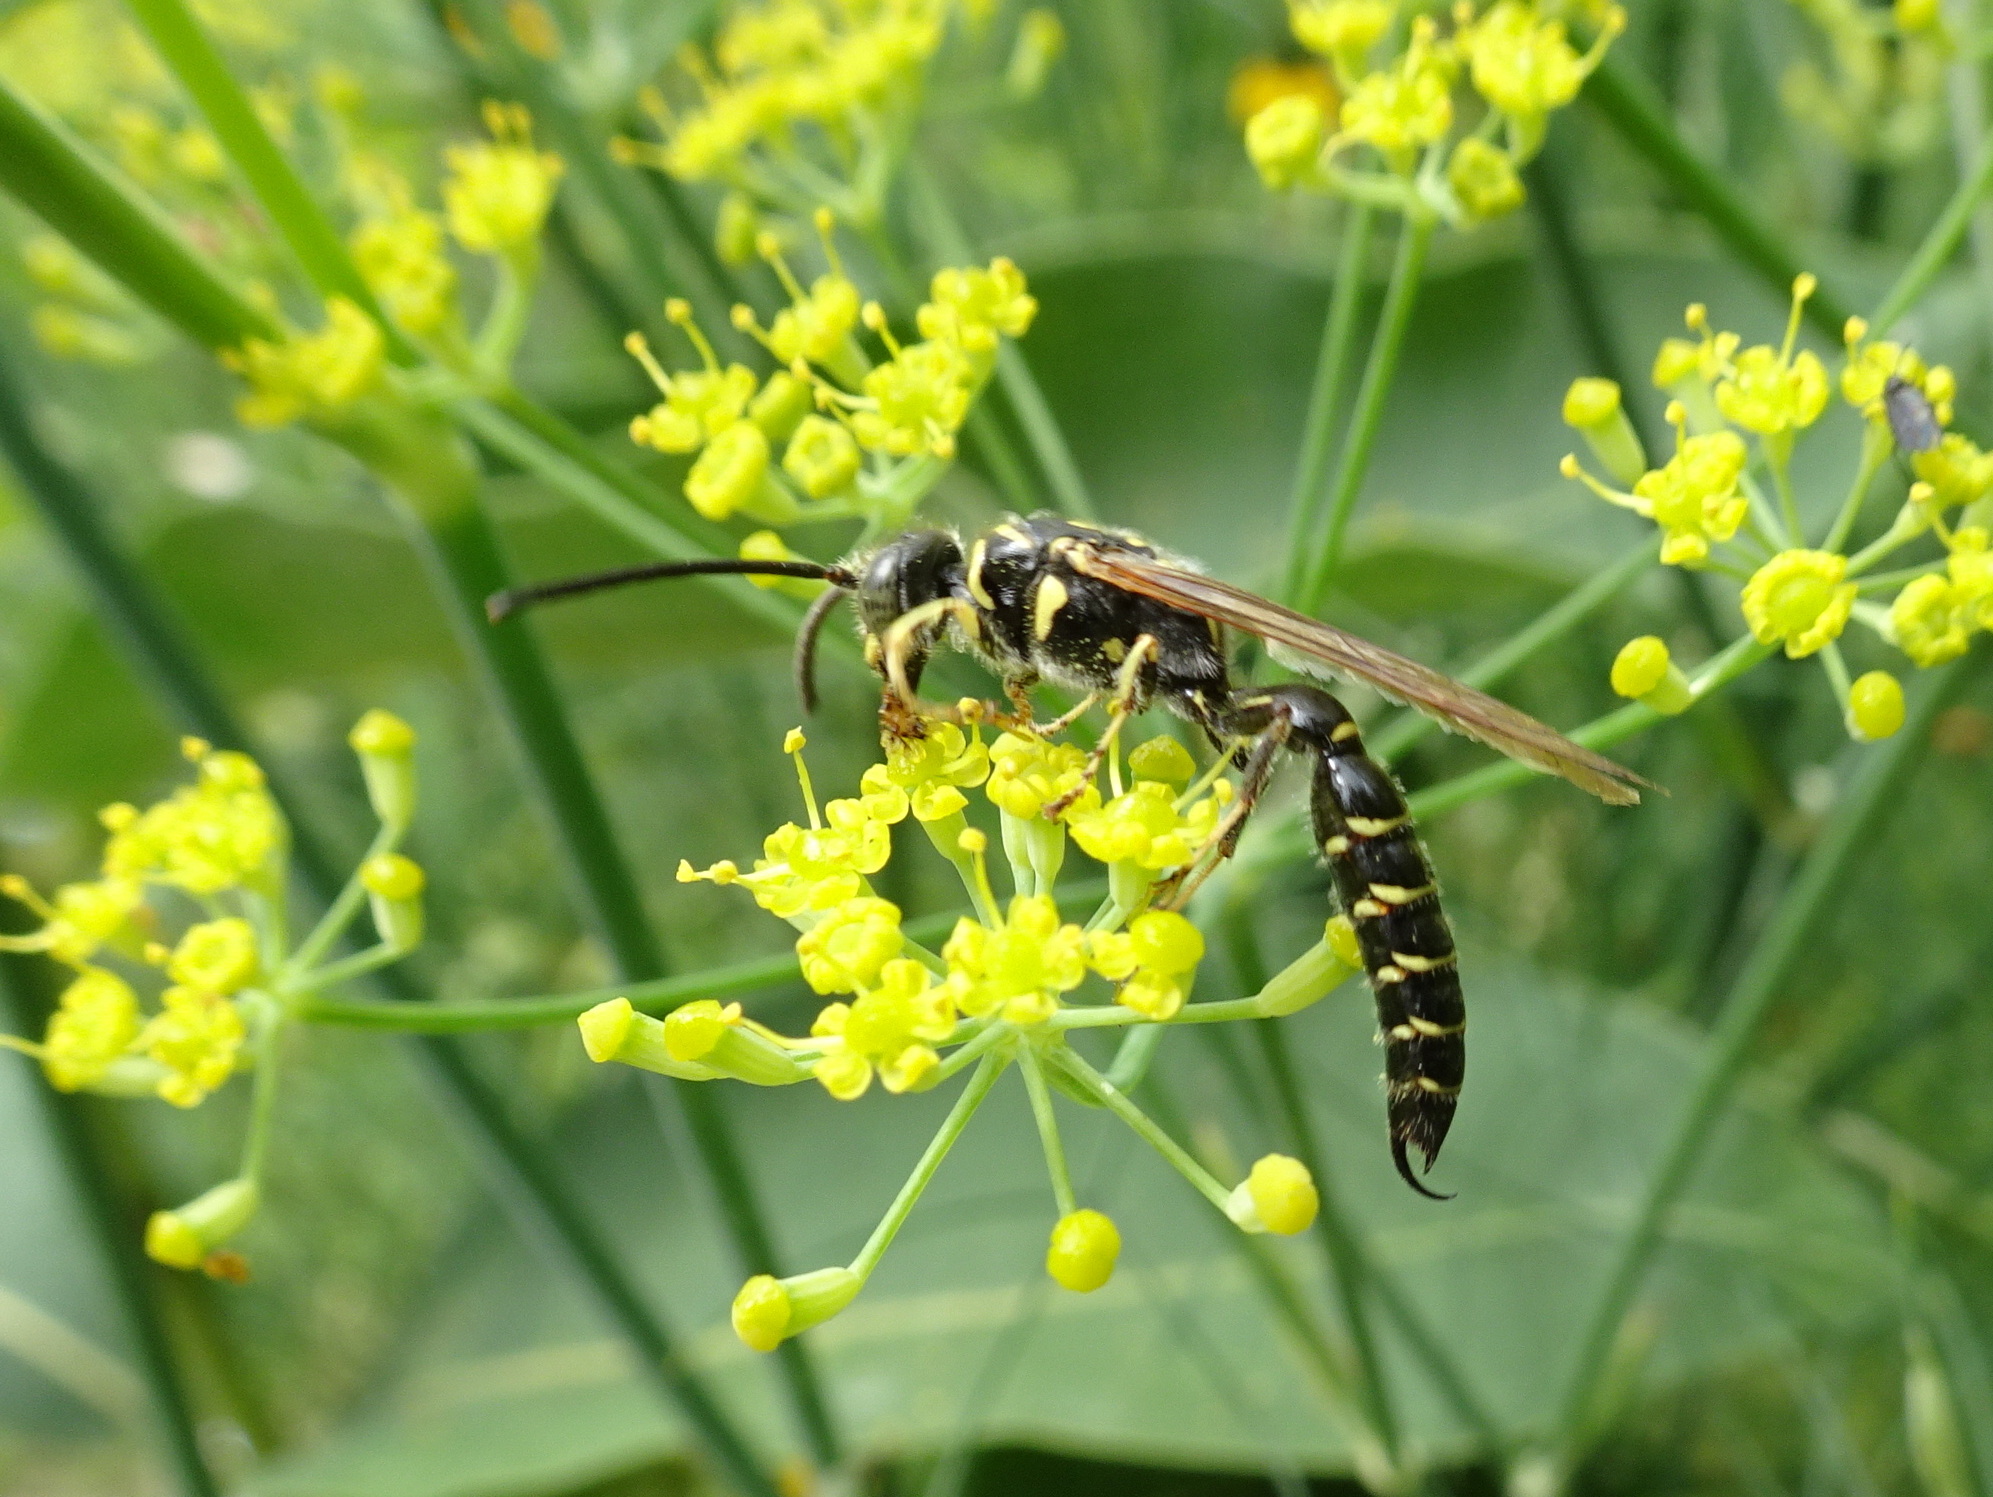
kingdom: Animalia
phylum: Arthropoda
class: Insecta
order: Hymenoptera
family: Tiphiidae
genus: Myzinum
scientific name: Myzinum
